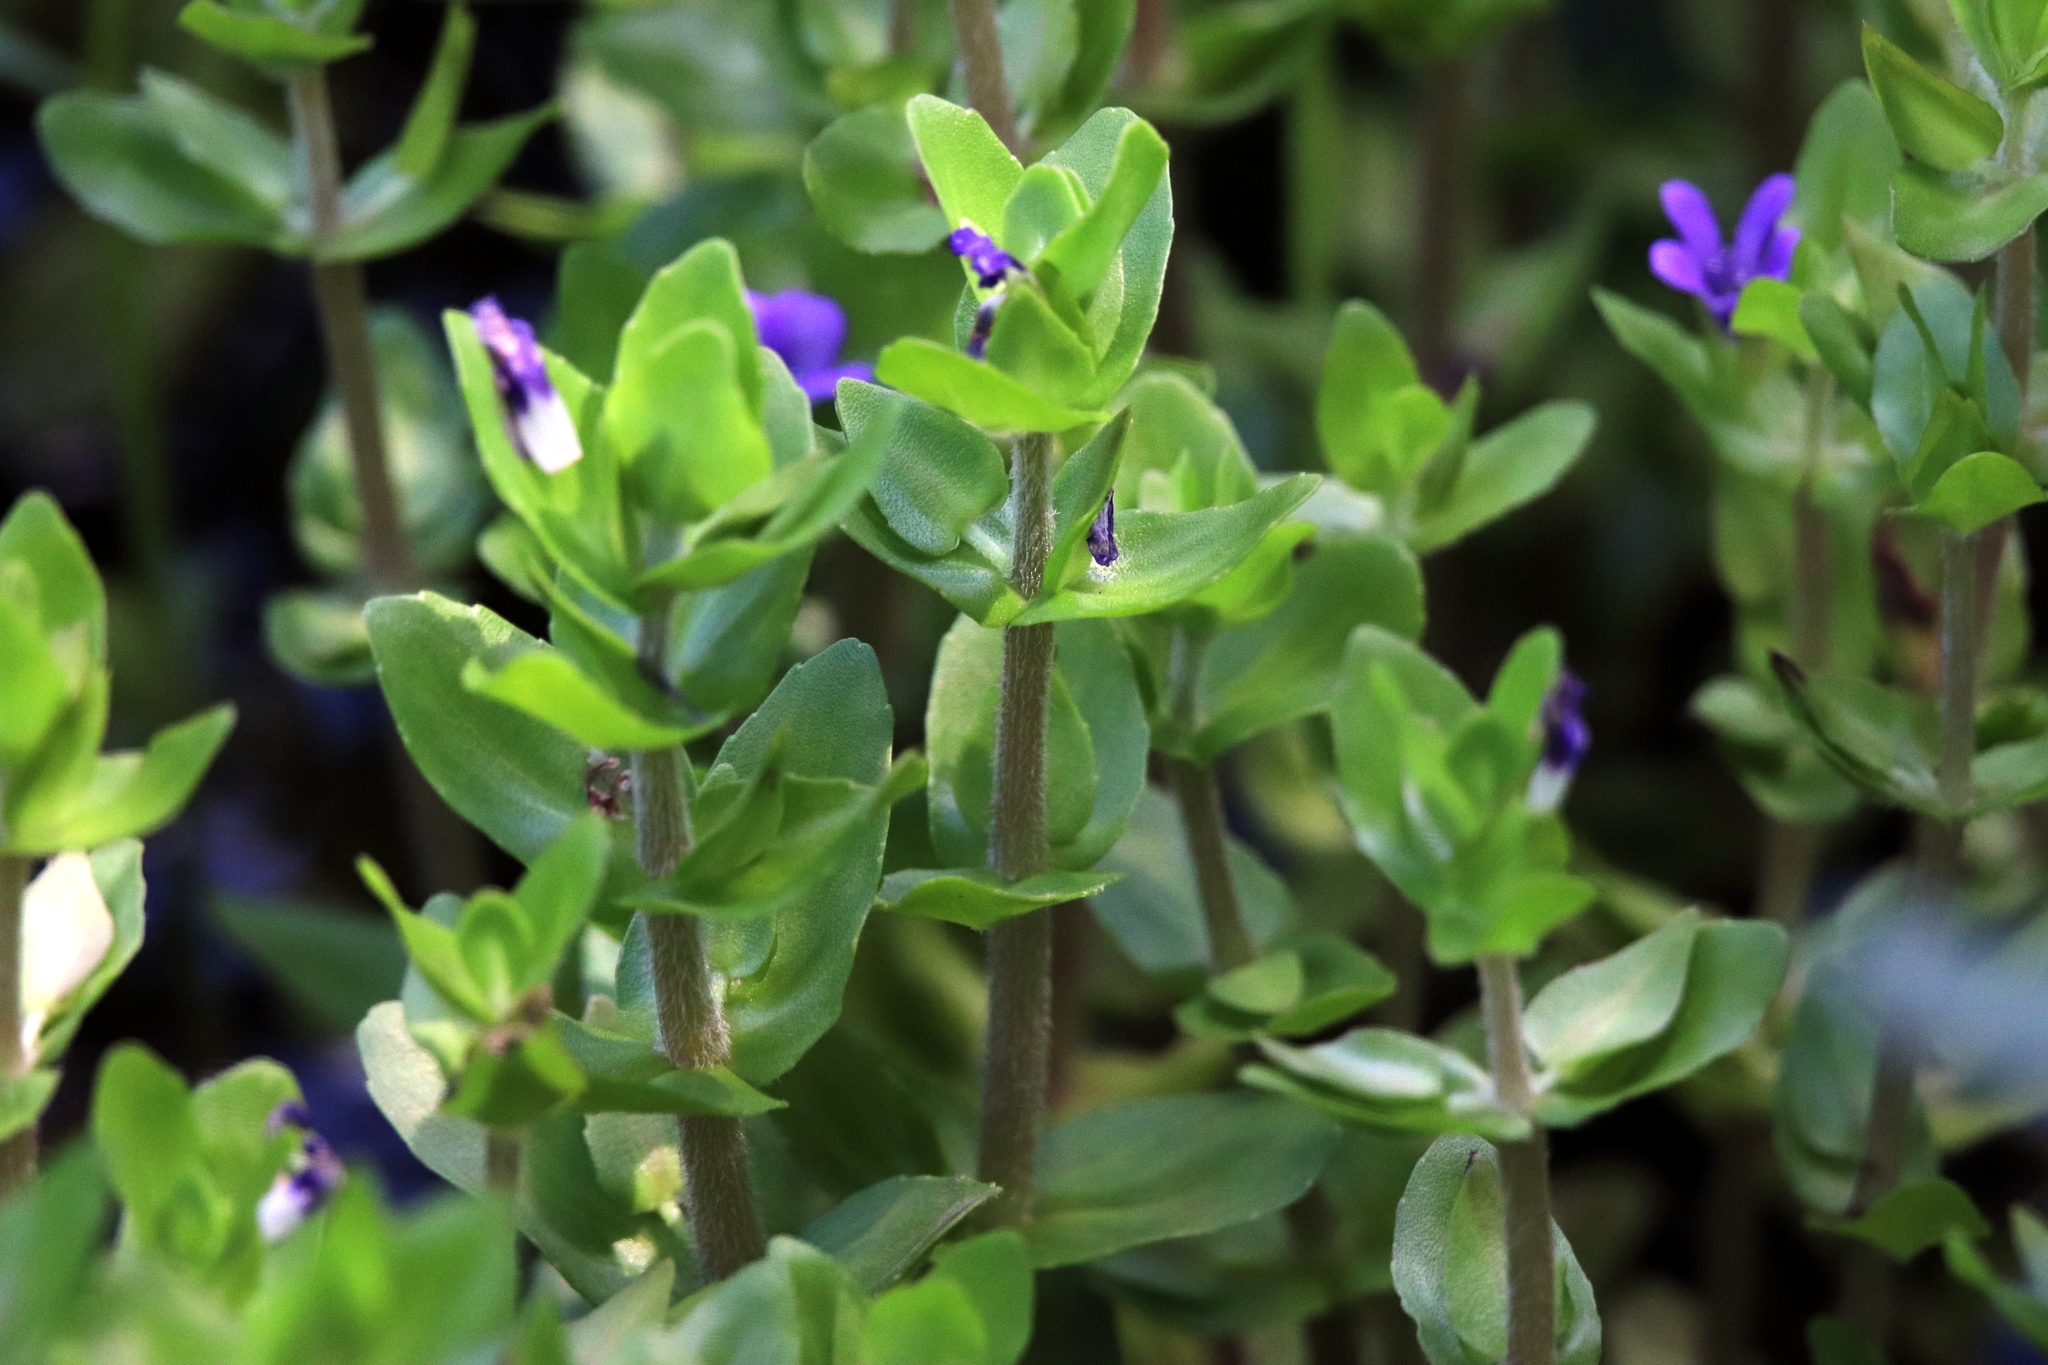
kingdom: Plantae
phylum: Tracheophyta
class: Magnoliopsida
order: Lamiales
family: Plantaginaceae
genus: Bacopa
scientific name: Bacopa caroliniana
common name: Lemon bacopa
